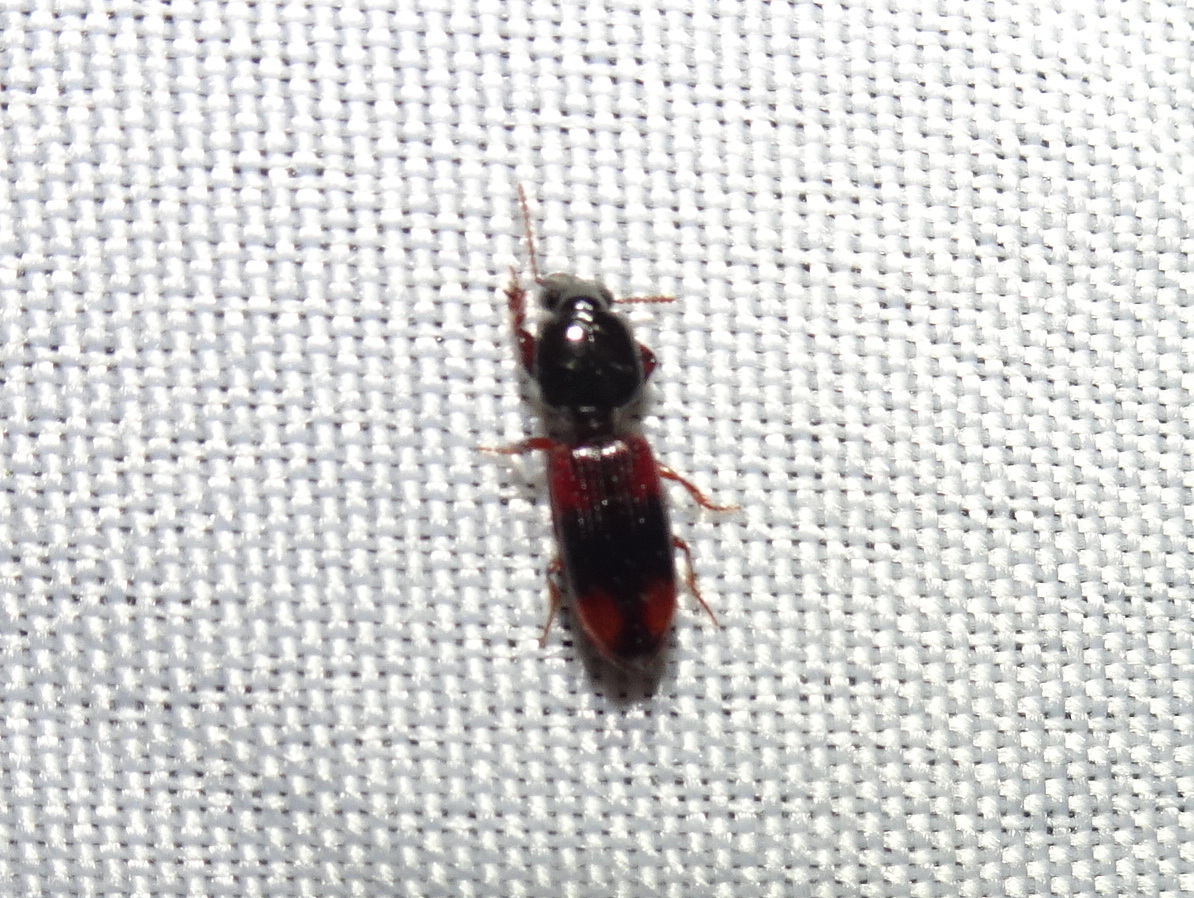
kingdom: Animalia
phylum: Arthropoda
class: Insecta
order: Coleoptera
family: Carabidae
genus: Clivina
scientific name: Clivina bipustulata
